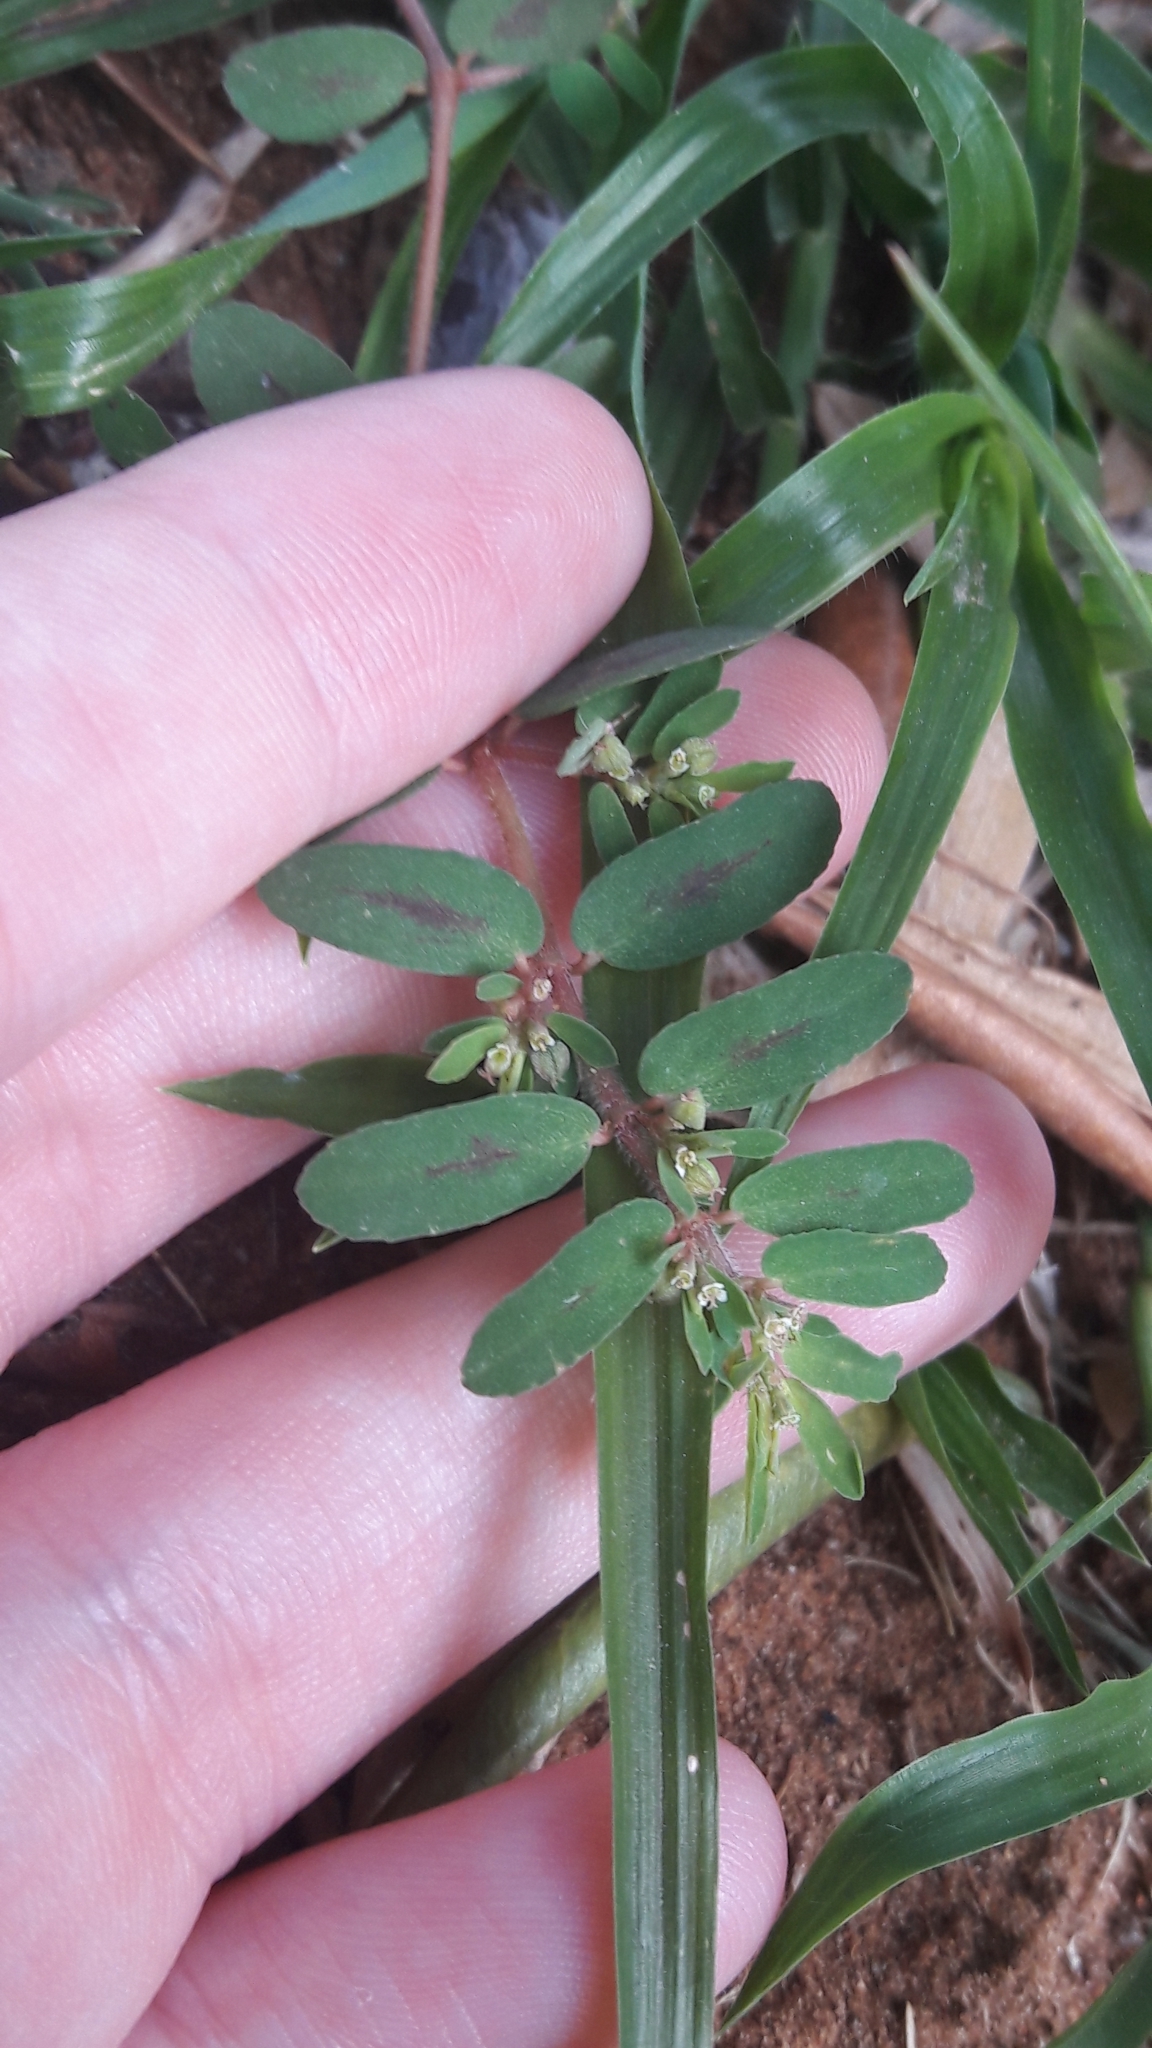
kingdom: Plantae
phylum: Tracheophyta
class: Magnoliopsida
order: Malpighiales
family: Euphorbiaceae
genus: Euphorbia
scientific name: Euphorbia maculata
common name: Spotted spurge
